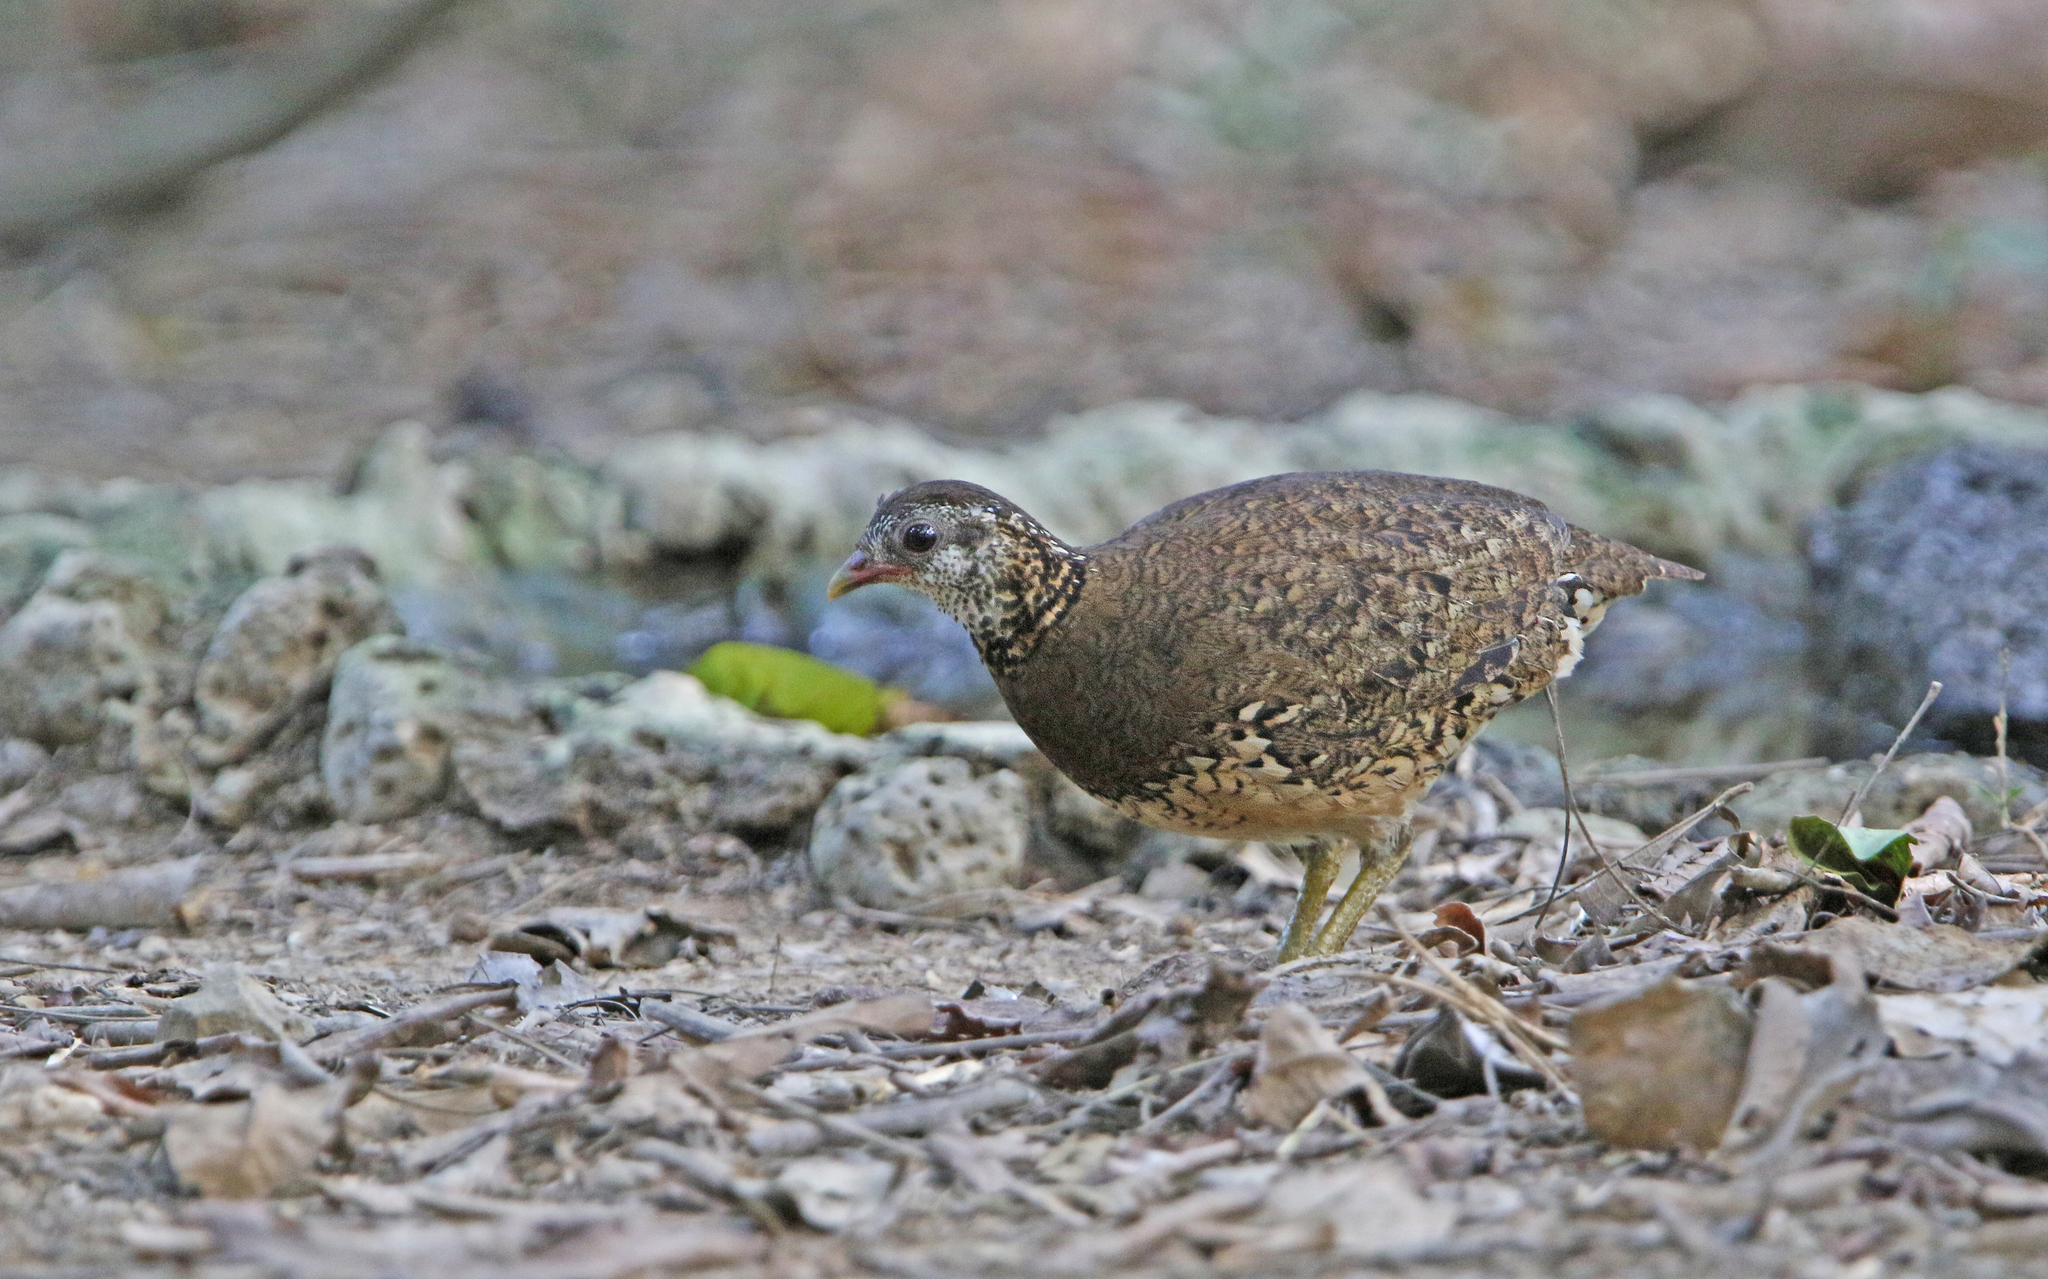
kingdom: Animalia
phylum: Chordata
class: Aves
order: Galliformes
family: Phasianidae
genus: Tropicoperdix
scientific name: Tropicoperdix chloropus
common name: Green-legged partridge
